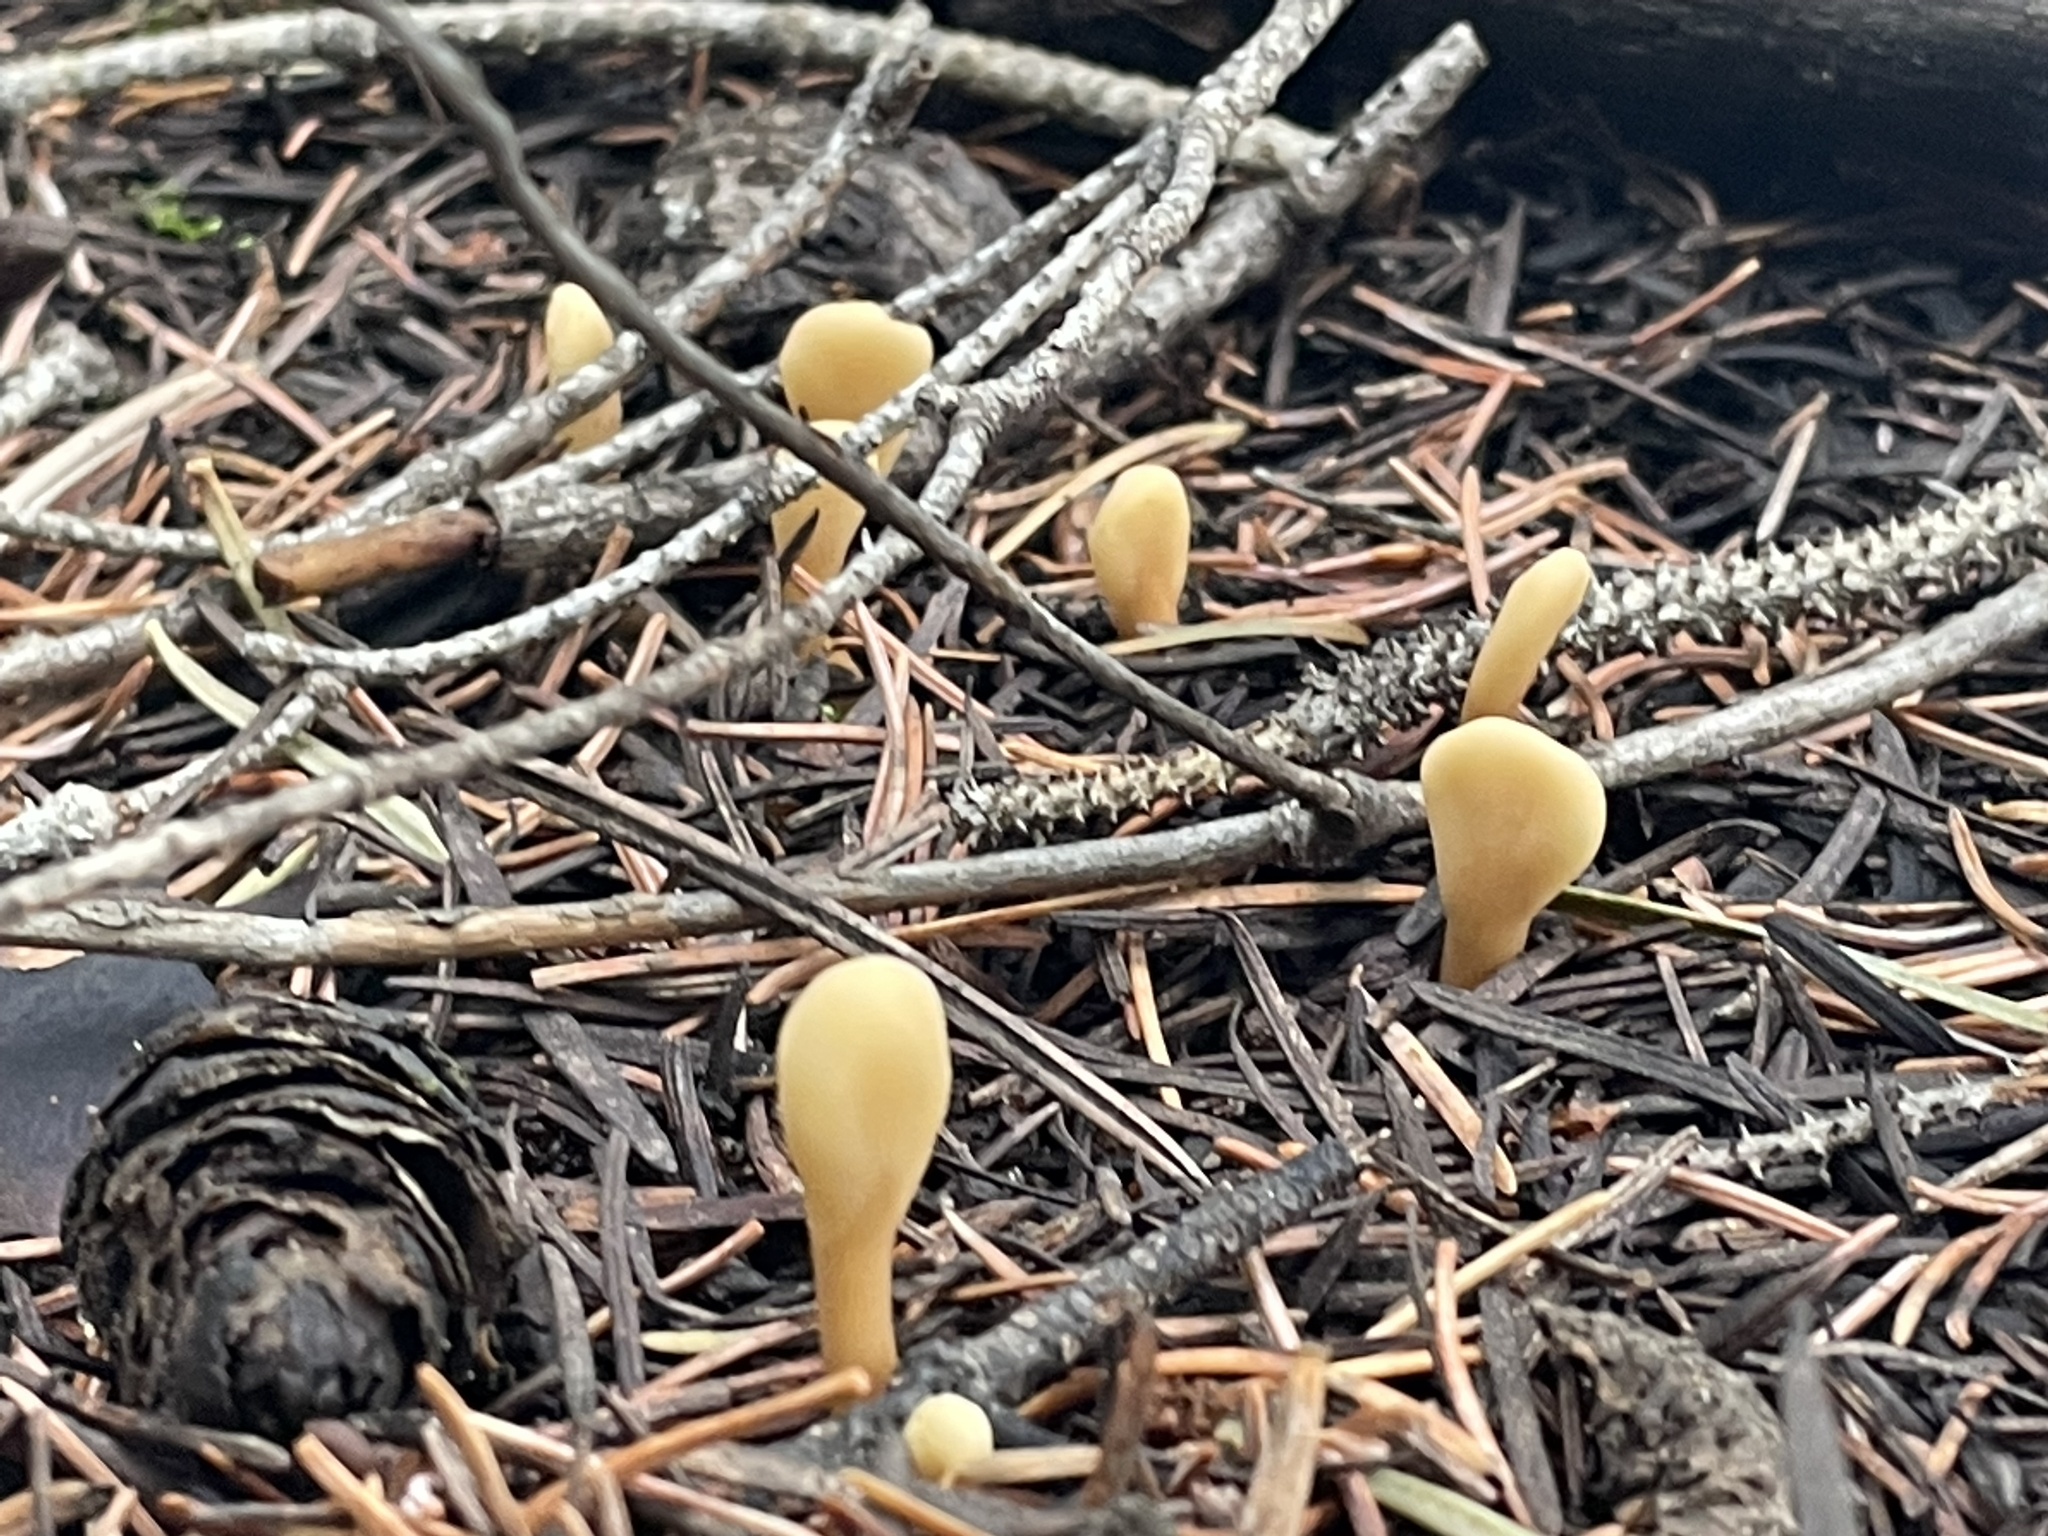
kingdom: Fungi
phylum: Ascomycota
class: Leotiomycetes
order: Rhytismatales
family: Cudoniaceae
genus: Spathularia
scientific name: Spathularia rufa
